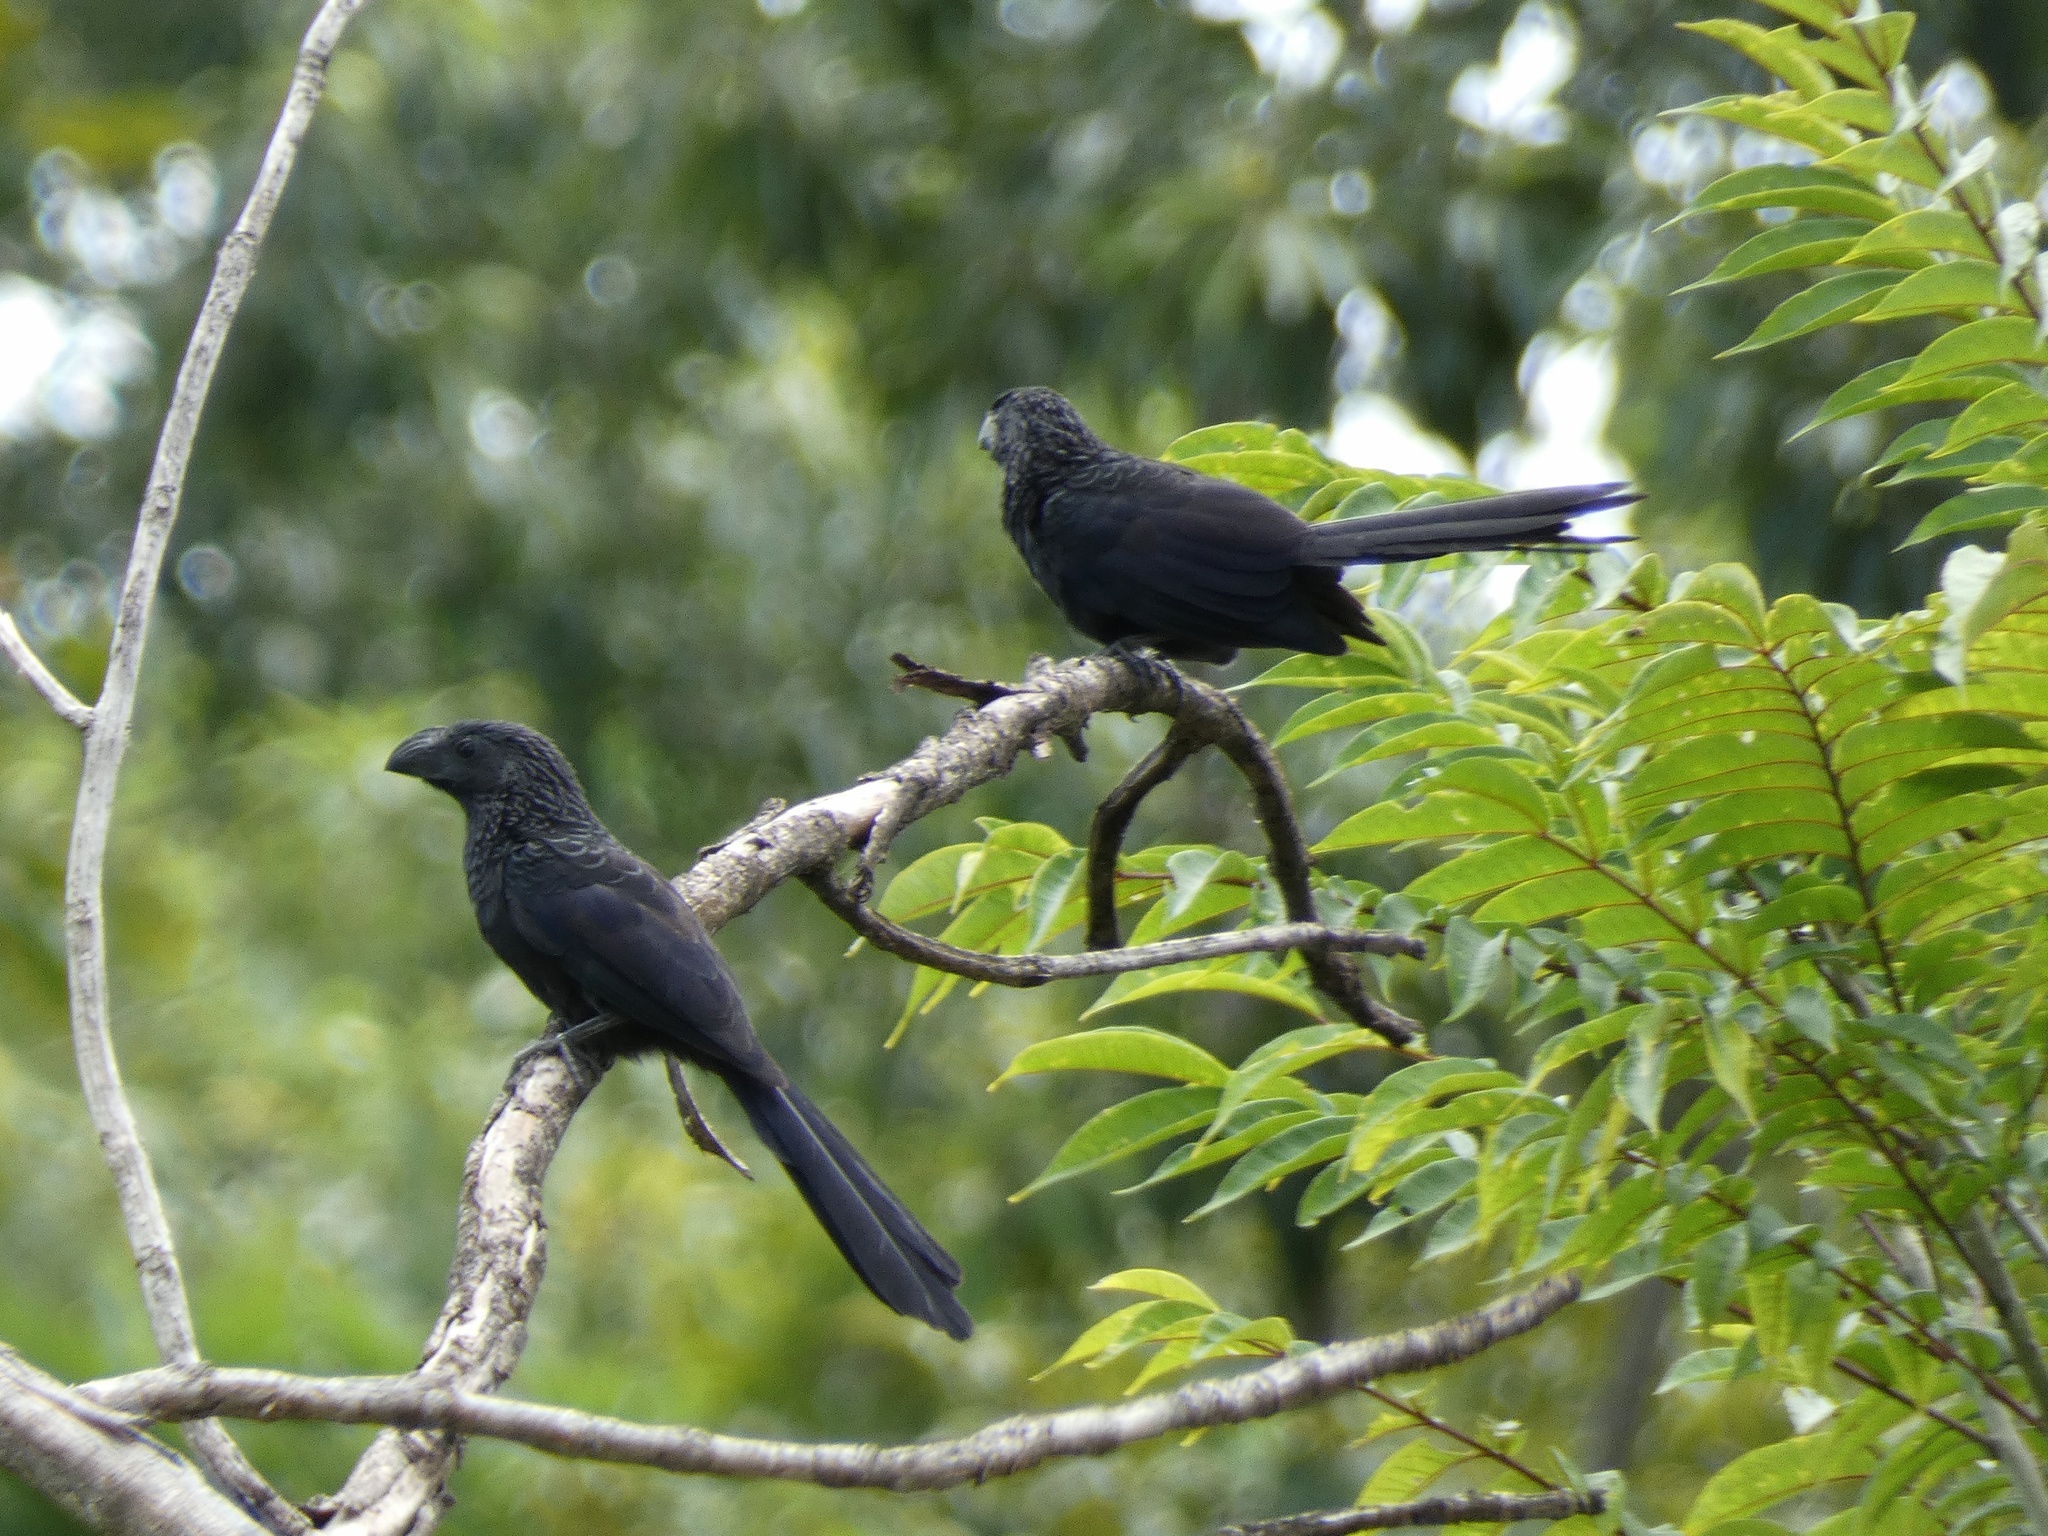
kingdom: Animalia
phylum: Chordata
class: Aves
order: Cuculiformes
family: Cuculidae
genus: Crotophaga
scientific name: Crotophaga sulcirostris
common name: Groove-billed ani
